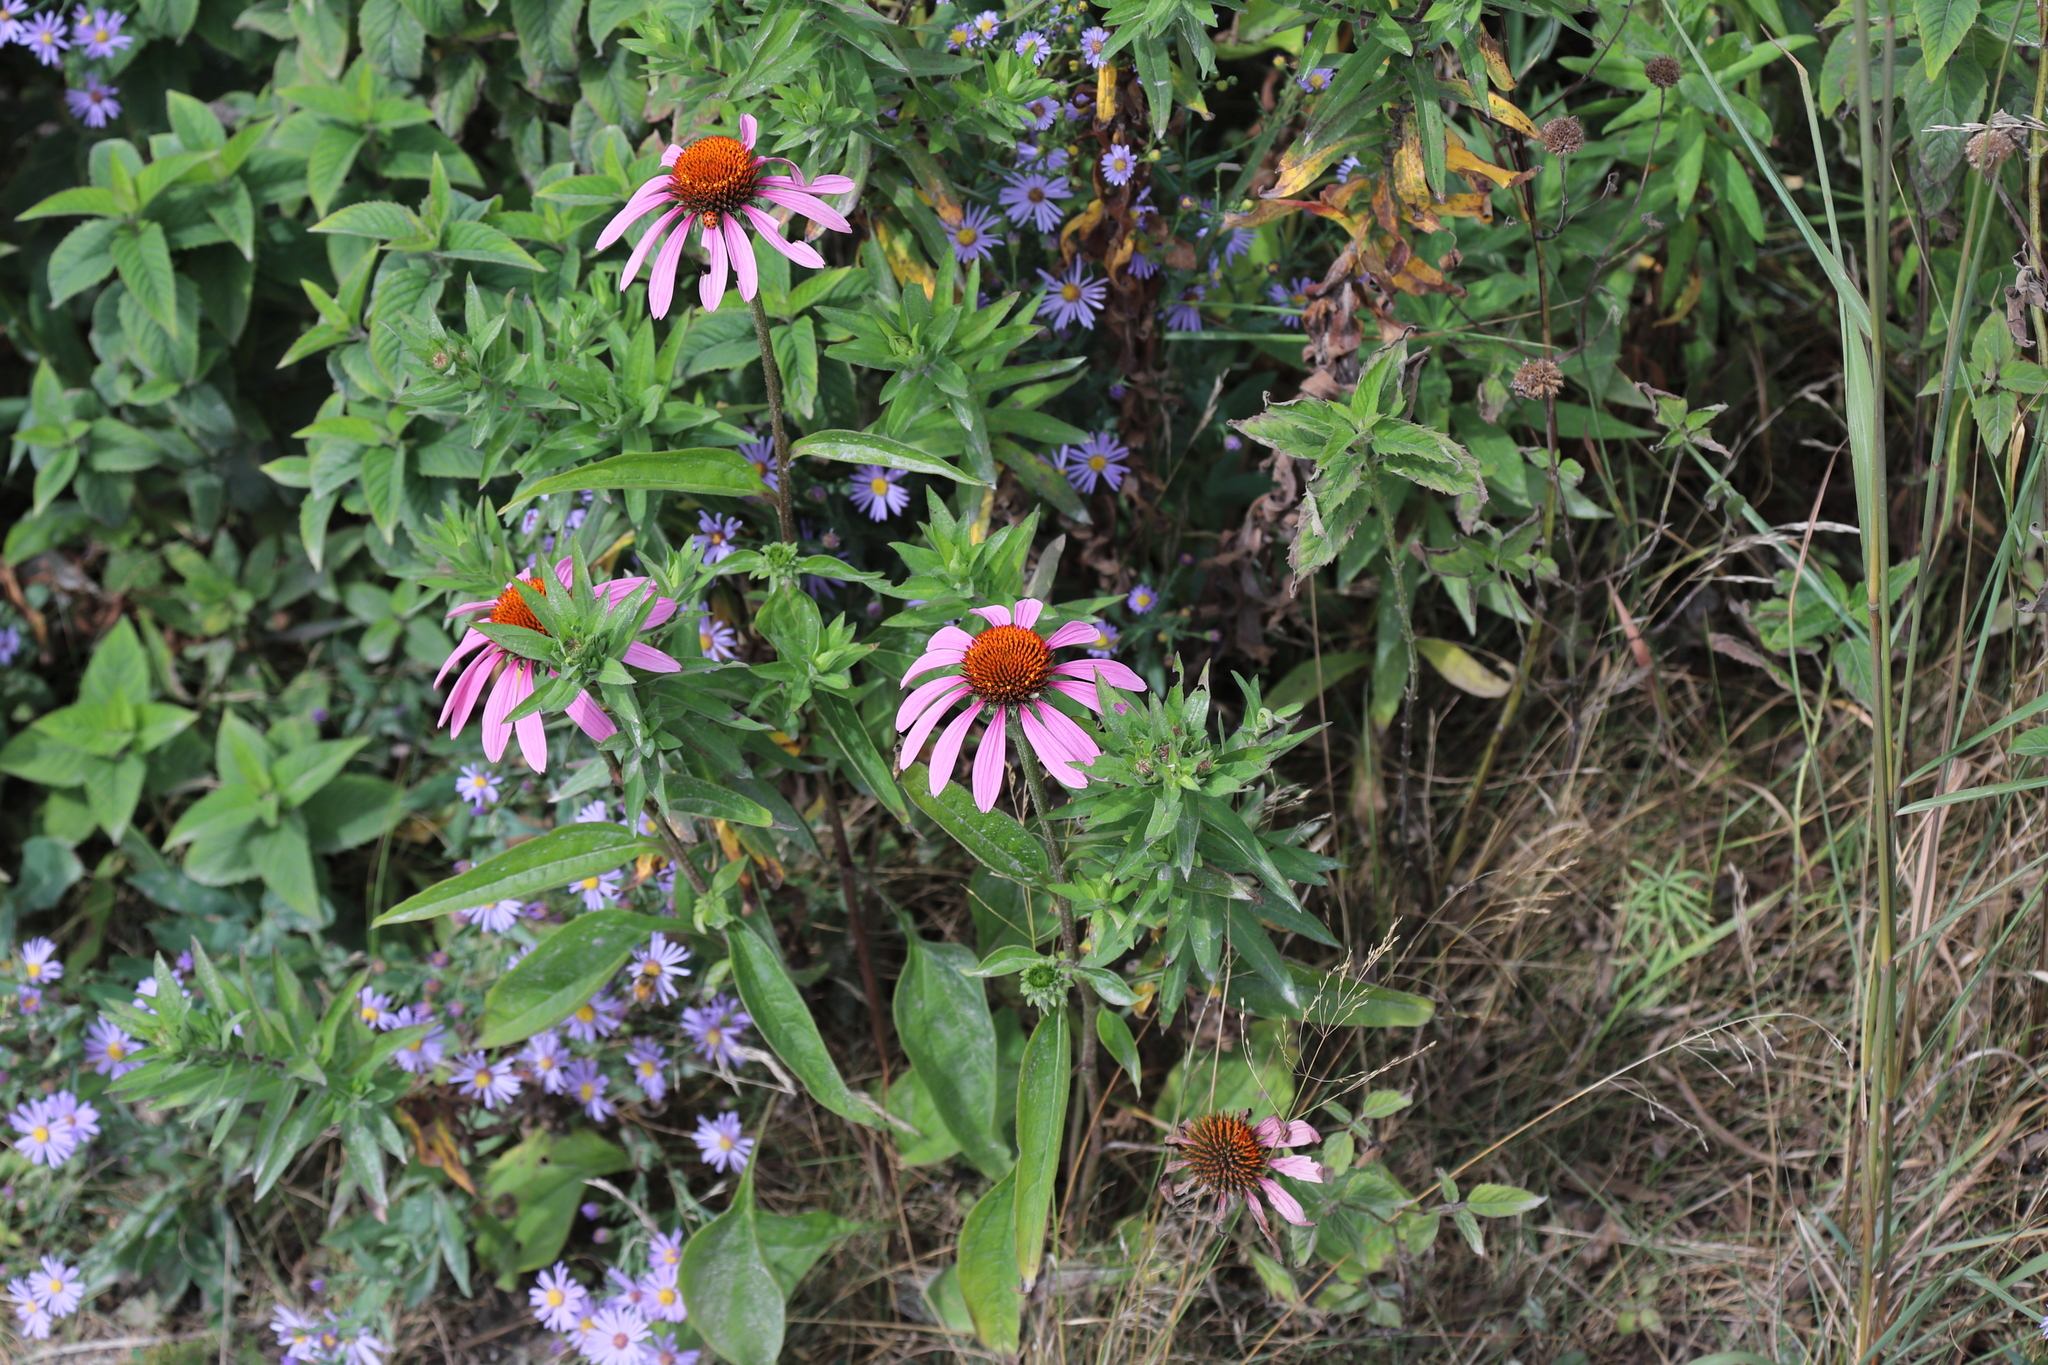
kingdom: Plantae
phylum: Tracheophyta
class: Magnoliopsida
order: Asterales
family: Asteraceae
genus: Echinacea
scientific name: Echinacea purpurea
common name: Broad-leaved purple coneflower
